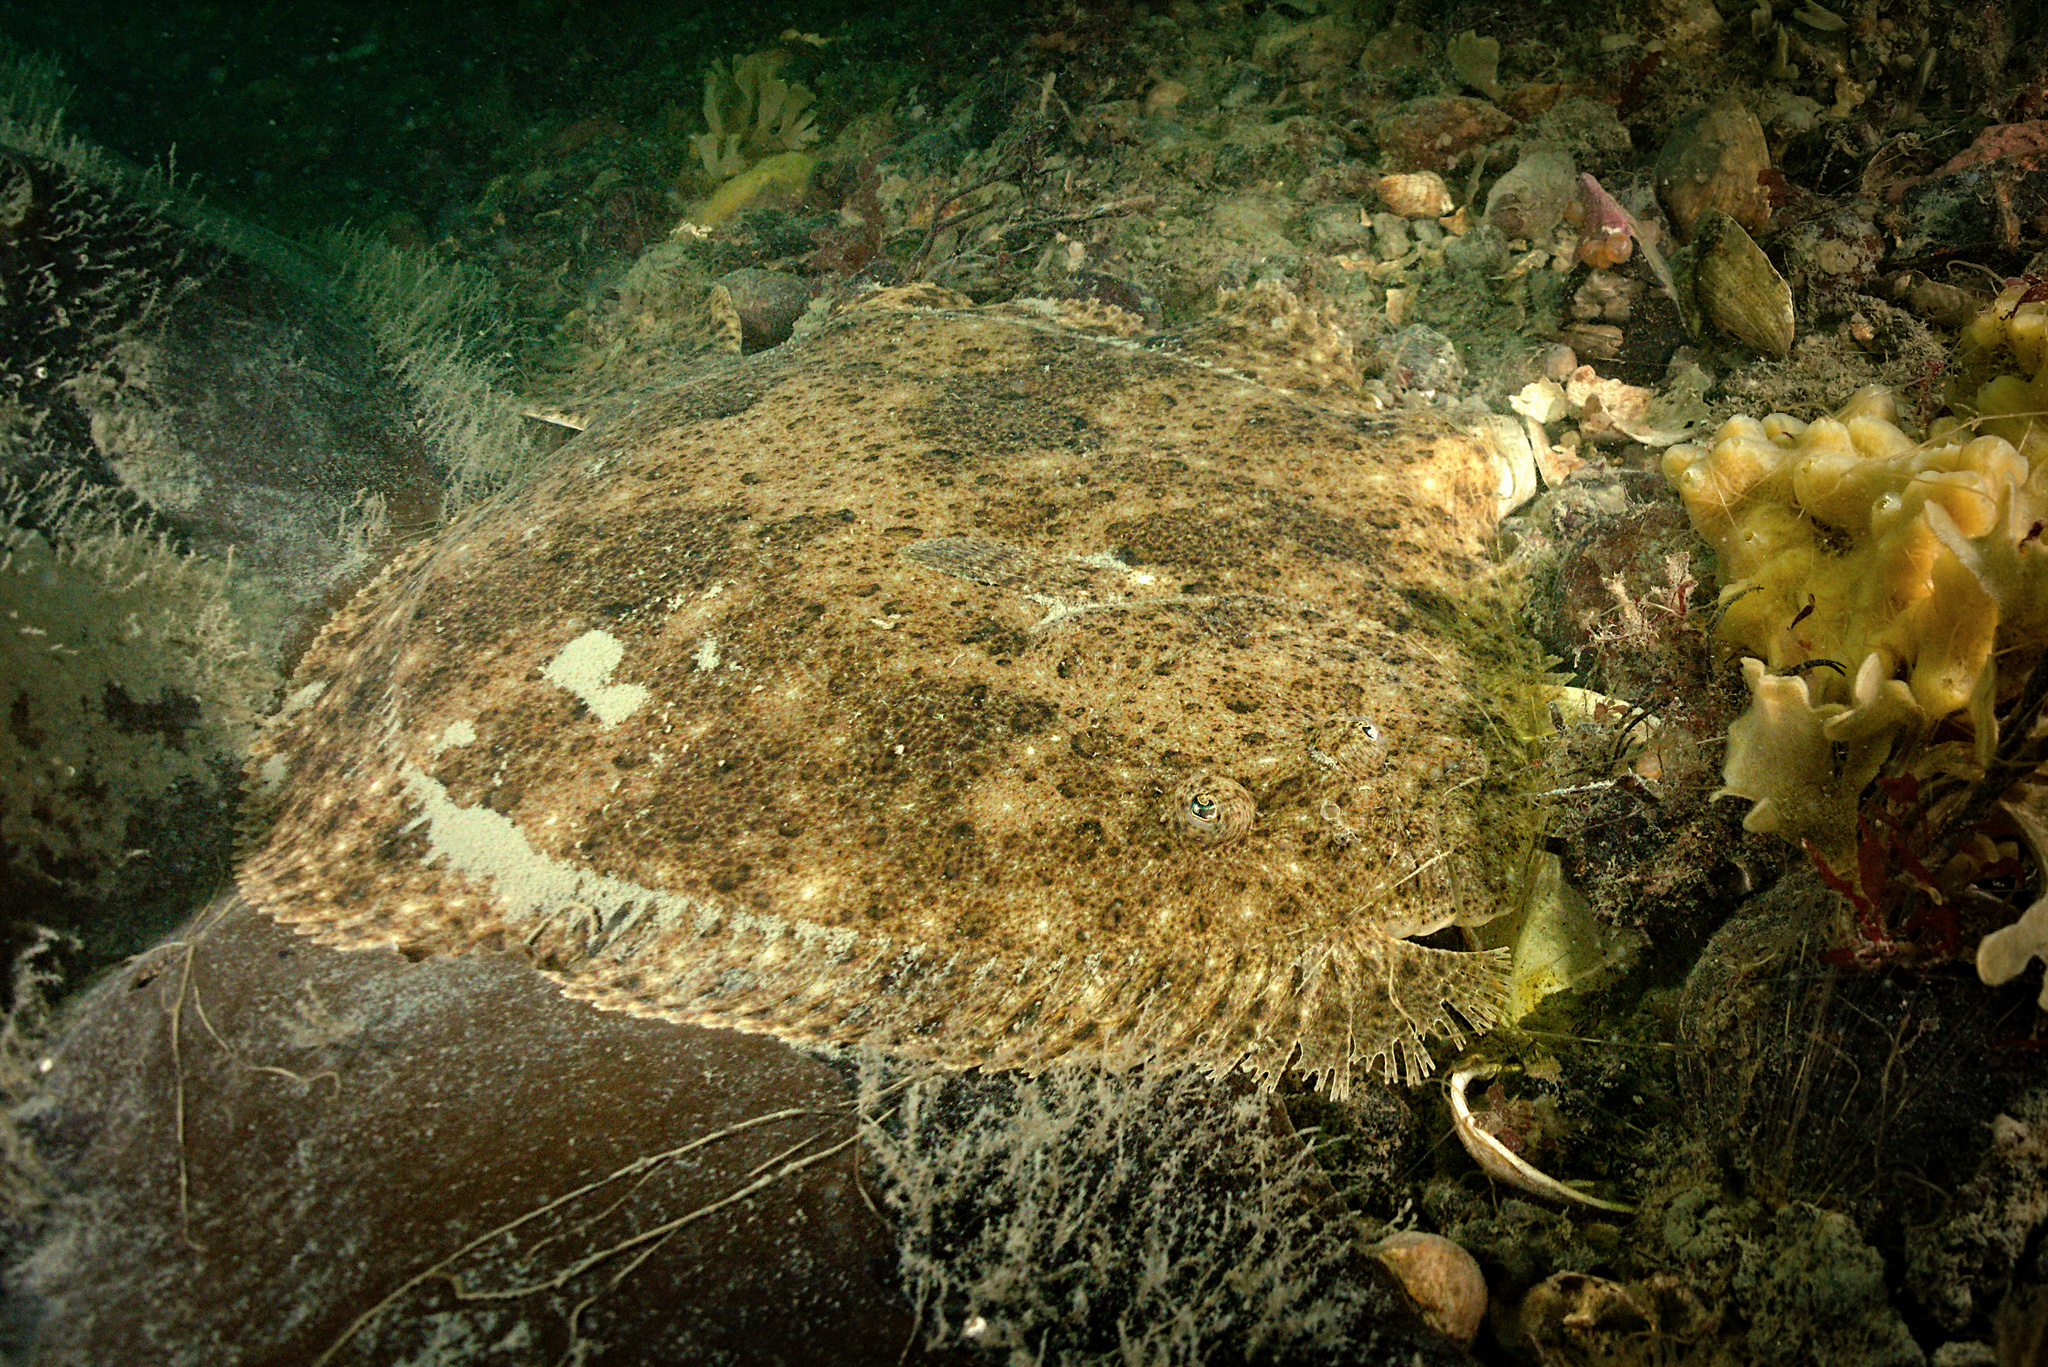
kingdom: Animalia
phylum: Chordata
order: Pleuronectiformes
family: Scophthalmidae
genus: Scophthalmus
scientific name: Scophthalmus rhombus
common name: Brill
